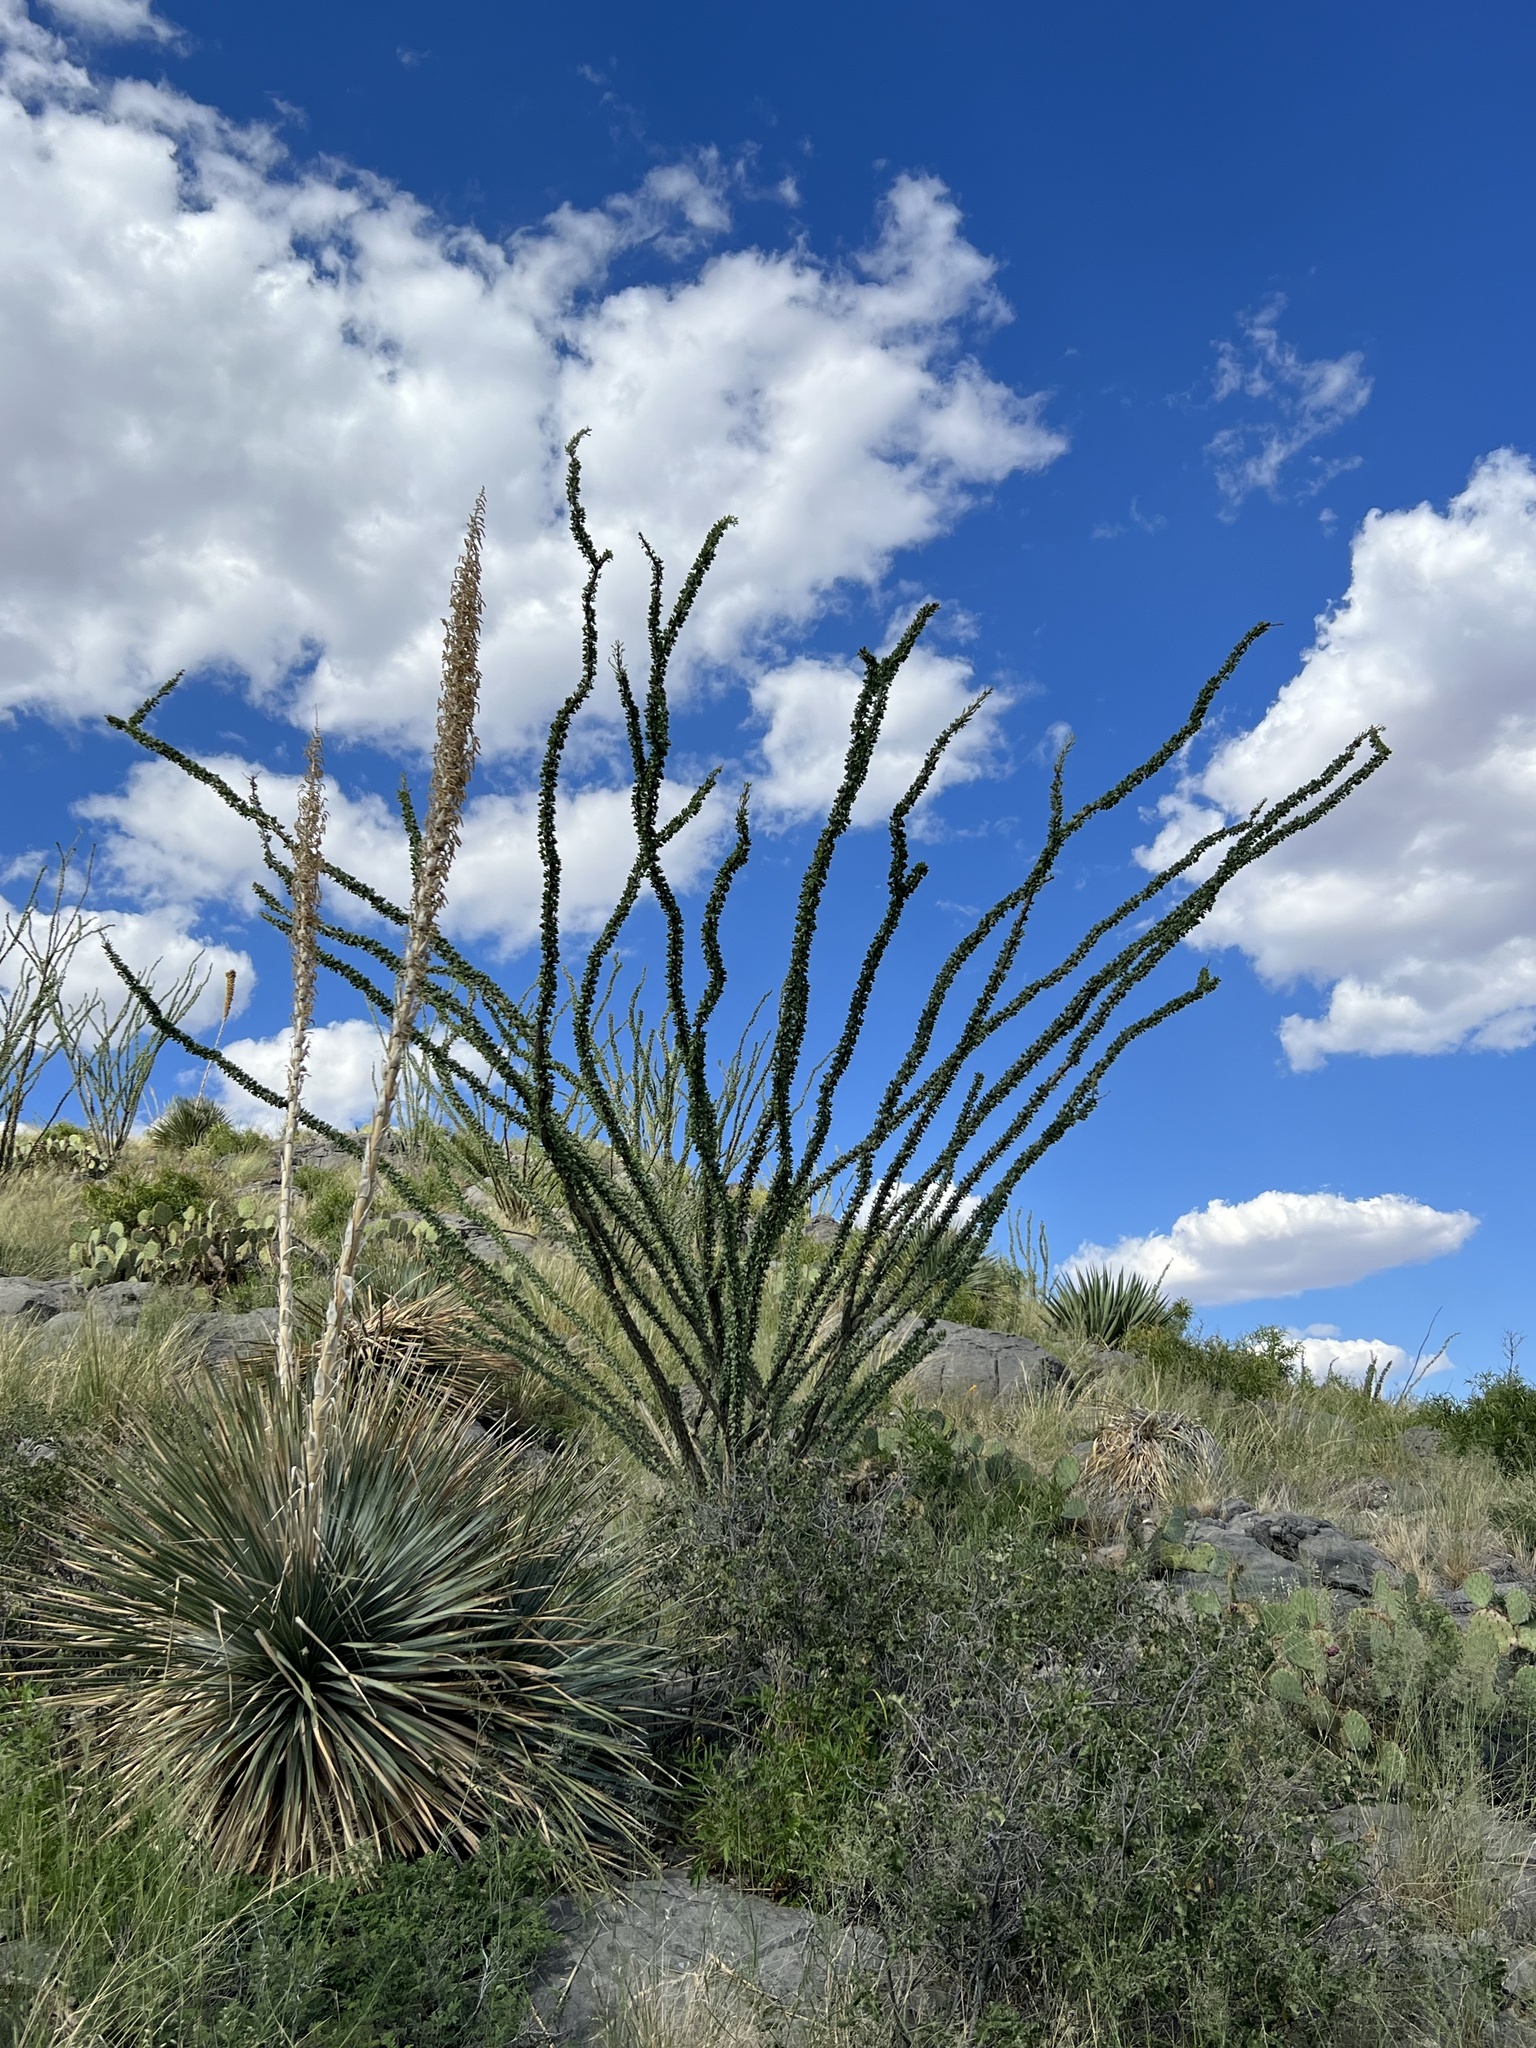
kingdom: Plantae
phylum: Tracheophyta
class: Magnoliopsida
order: Ericales
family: Fouquieriaceae
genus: Fouquieria
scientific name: Fouquieria splendens
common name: Vine-cactus
